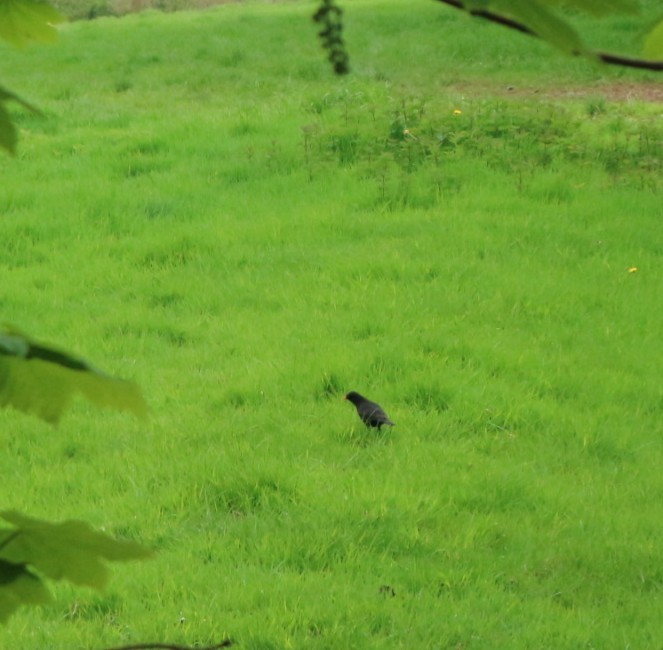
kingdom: Animalia
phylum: Chordata
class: Aves
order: Passeriformes
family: Turdidae
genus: Turdus
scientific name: Turdus merula
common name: Common blackbird
